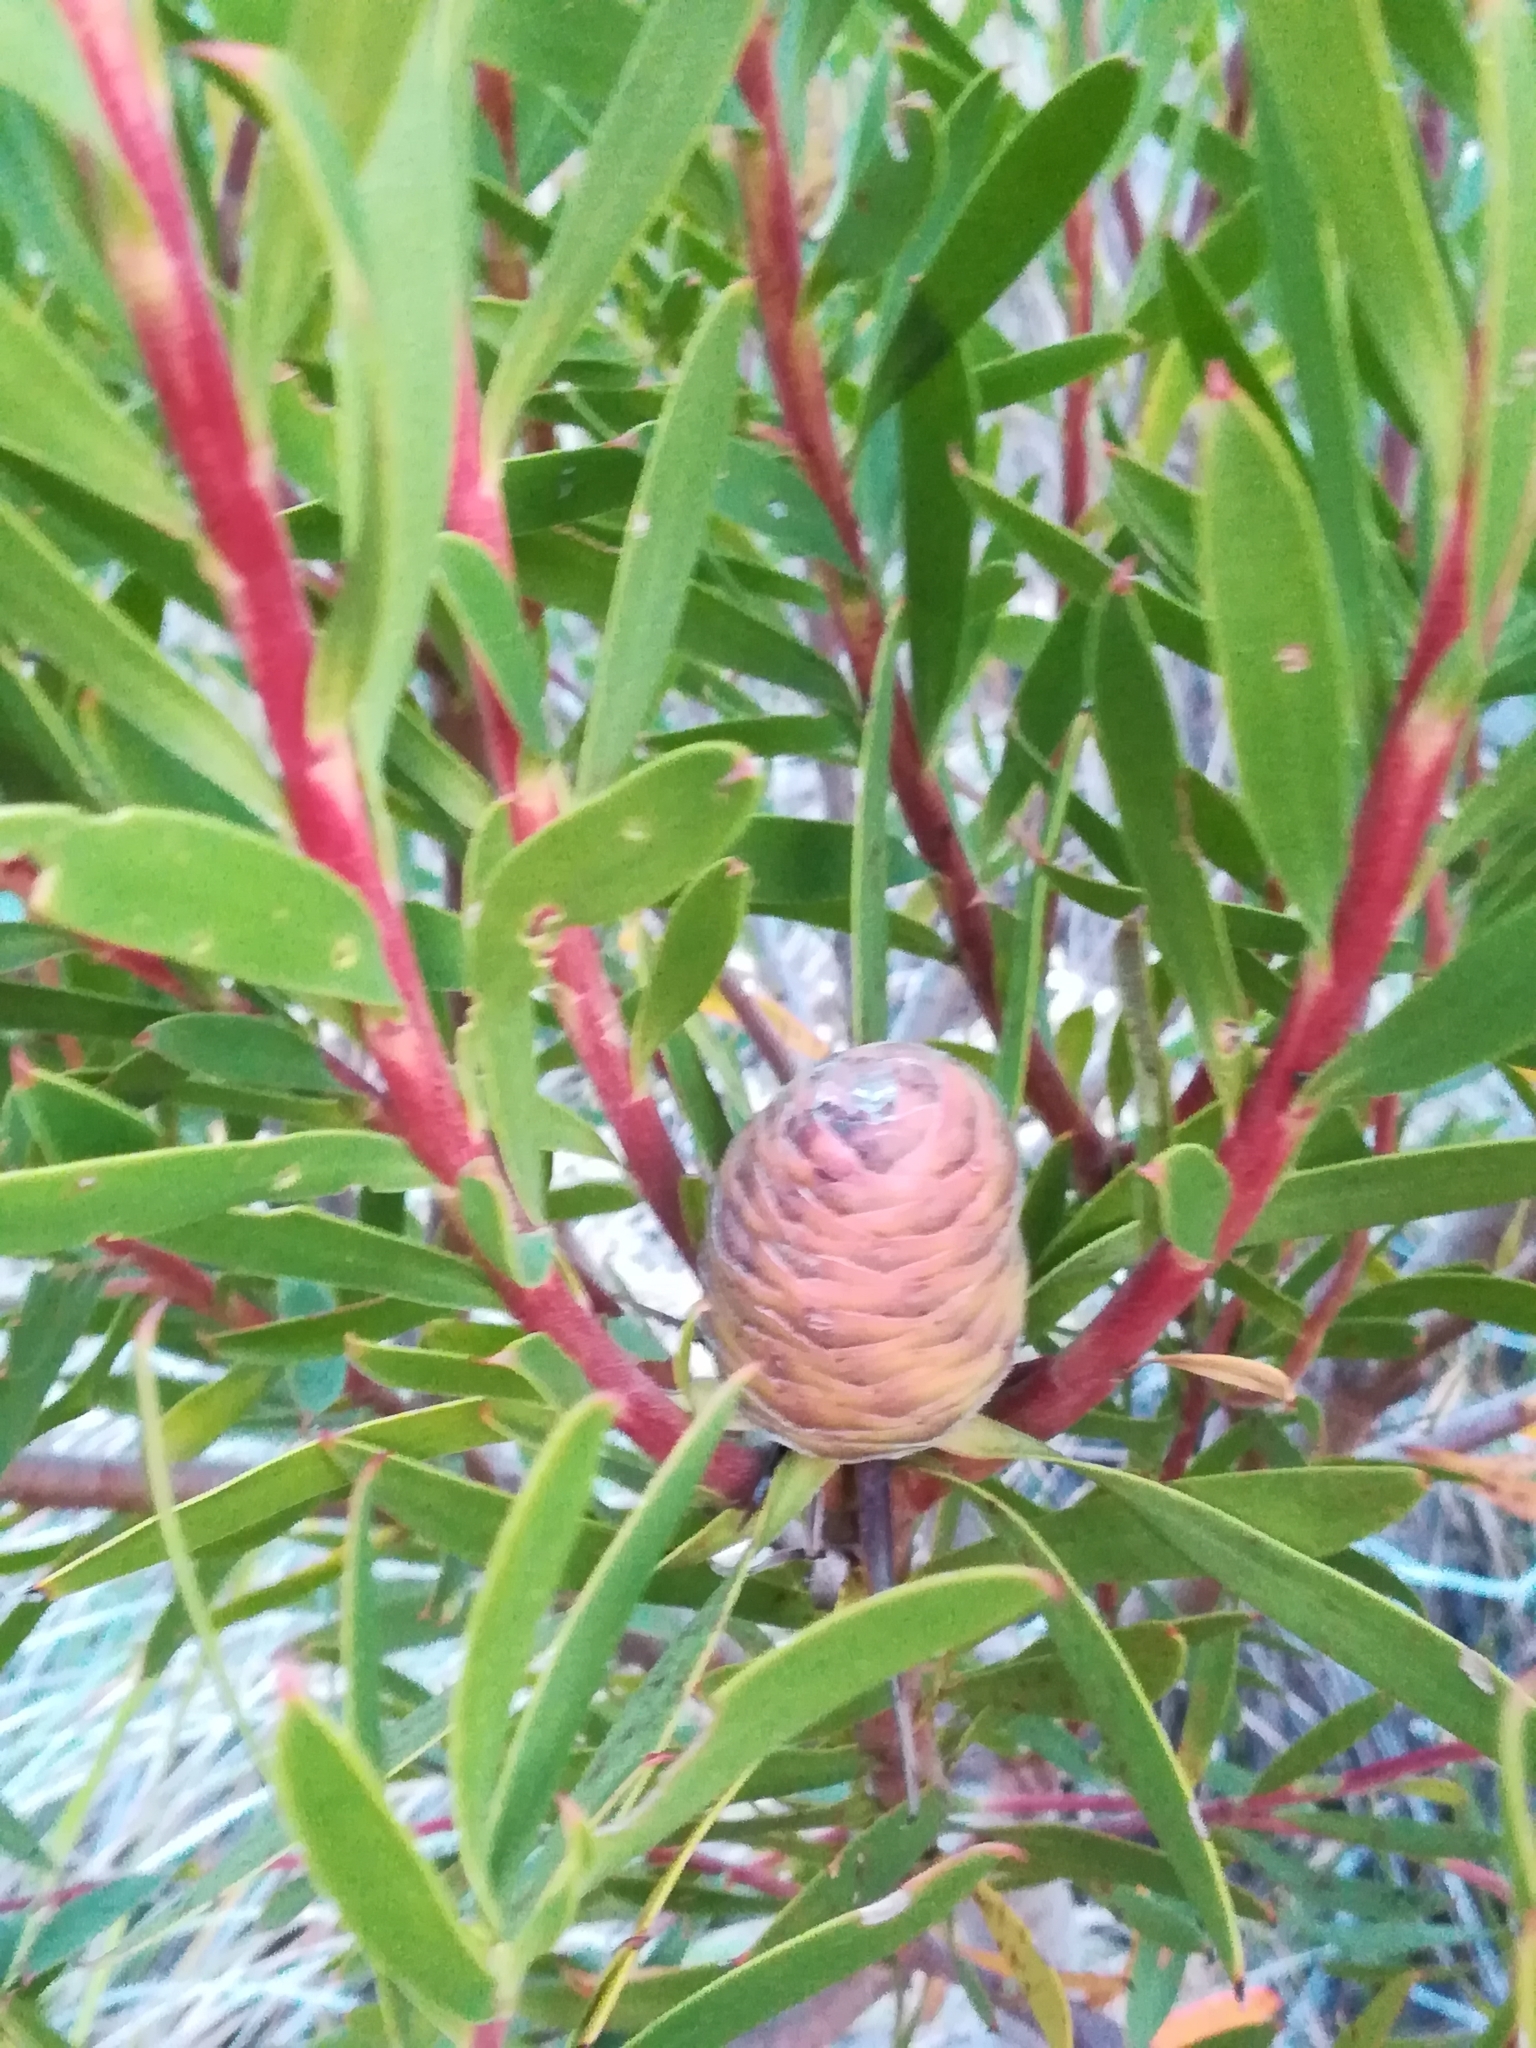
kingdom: Plantae
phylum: Tracheophyta
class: Magnoliopsida
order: Proteales
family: Proteaceae
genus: Leucadendron
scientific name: Leucadendron coniferum
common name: Dune conebush
